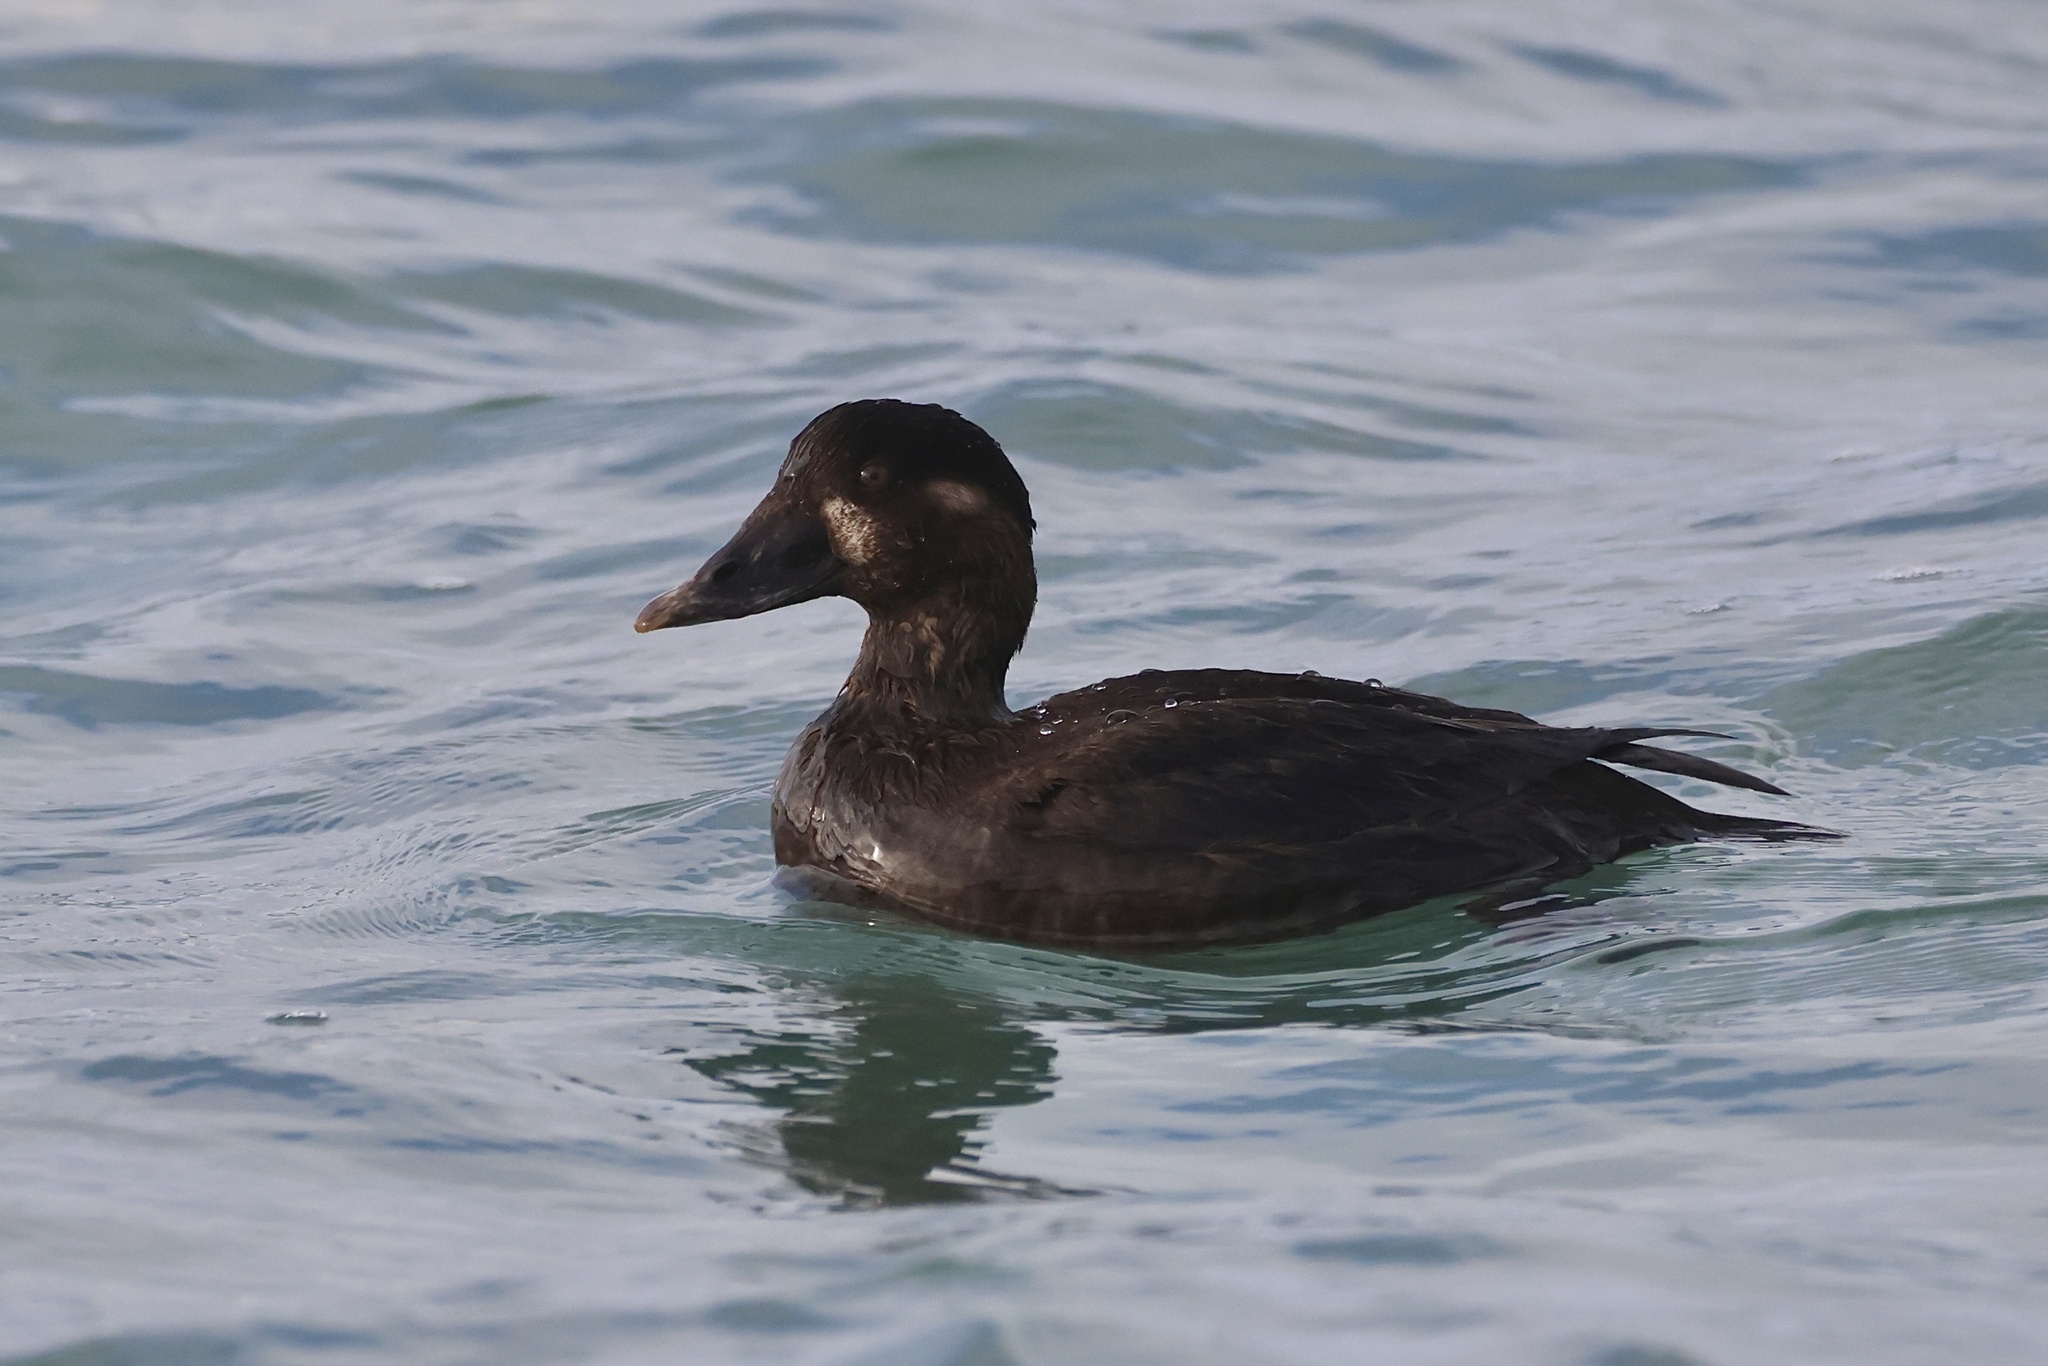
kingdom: Animalia
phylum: Chordata
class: Aves
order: Anseriformes
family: Anatidae
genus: Melanitta
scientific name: Melanitta perspicillata
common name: Surf scoter
